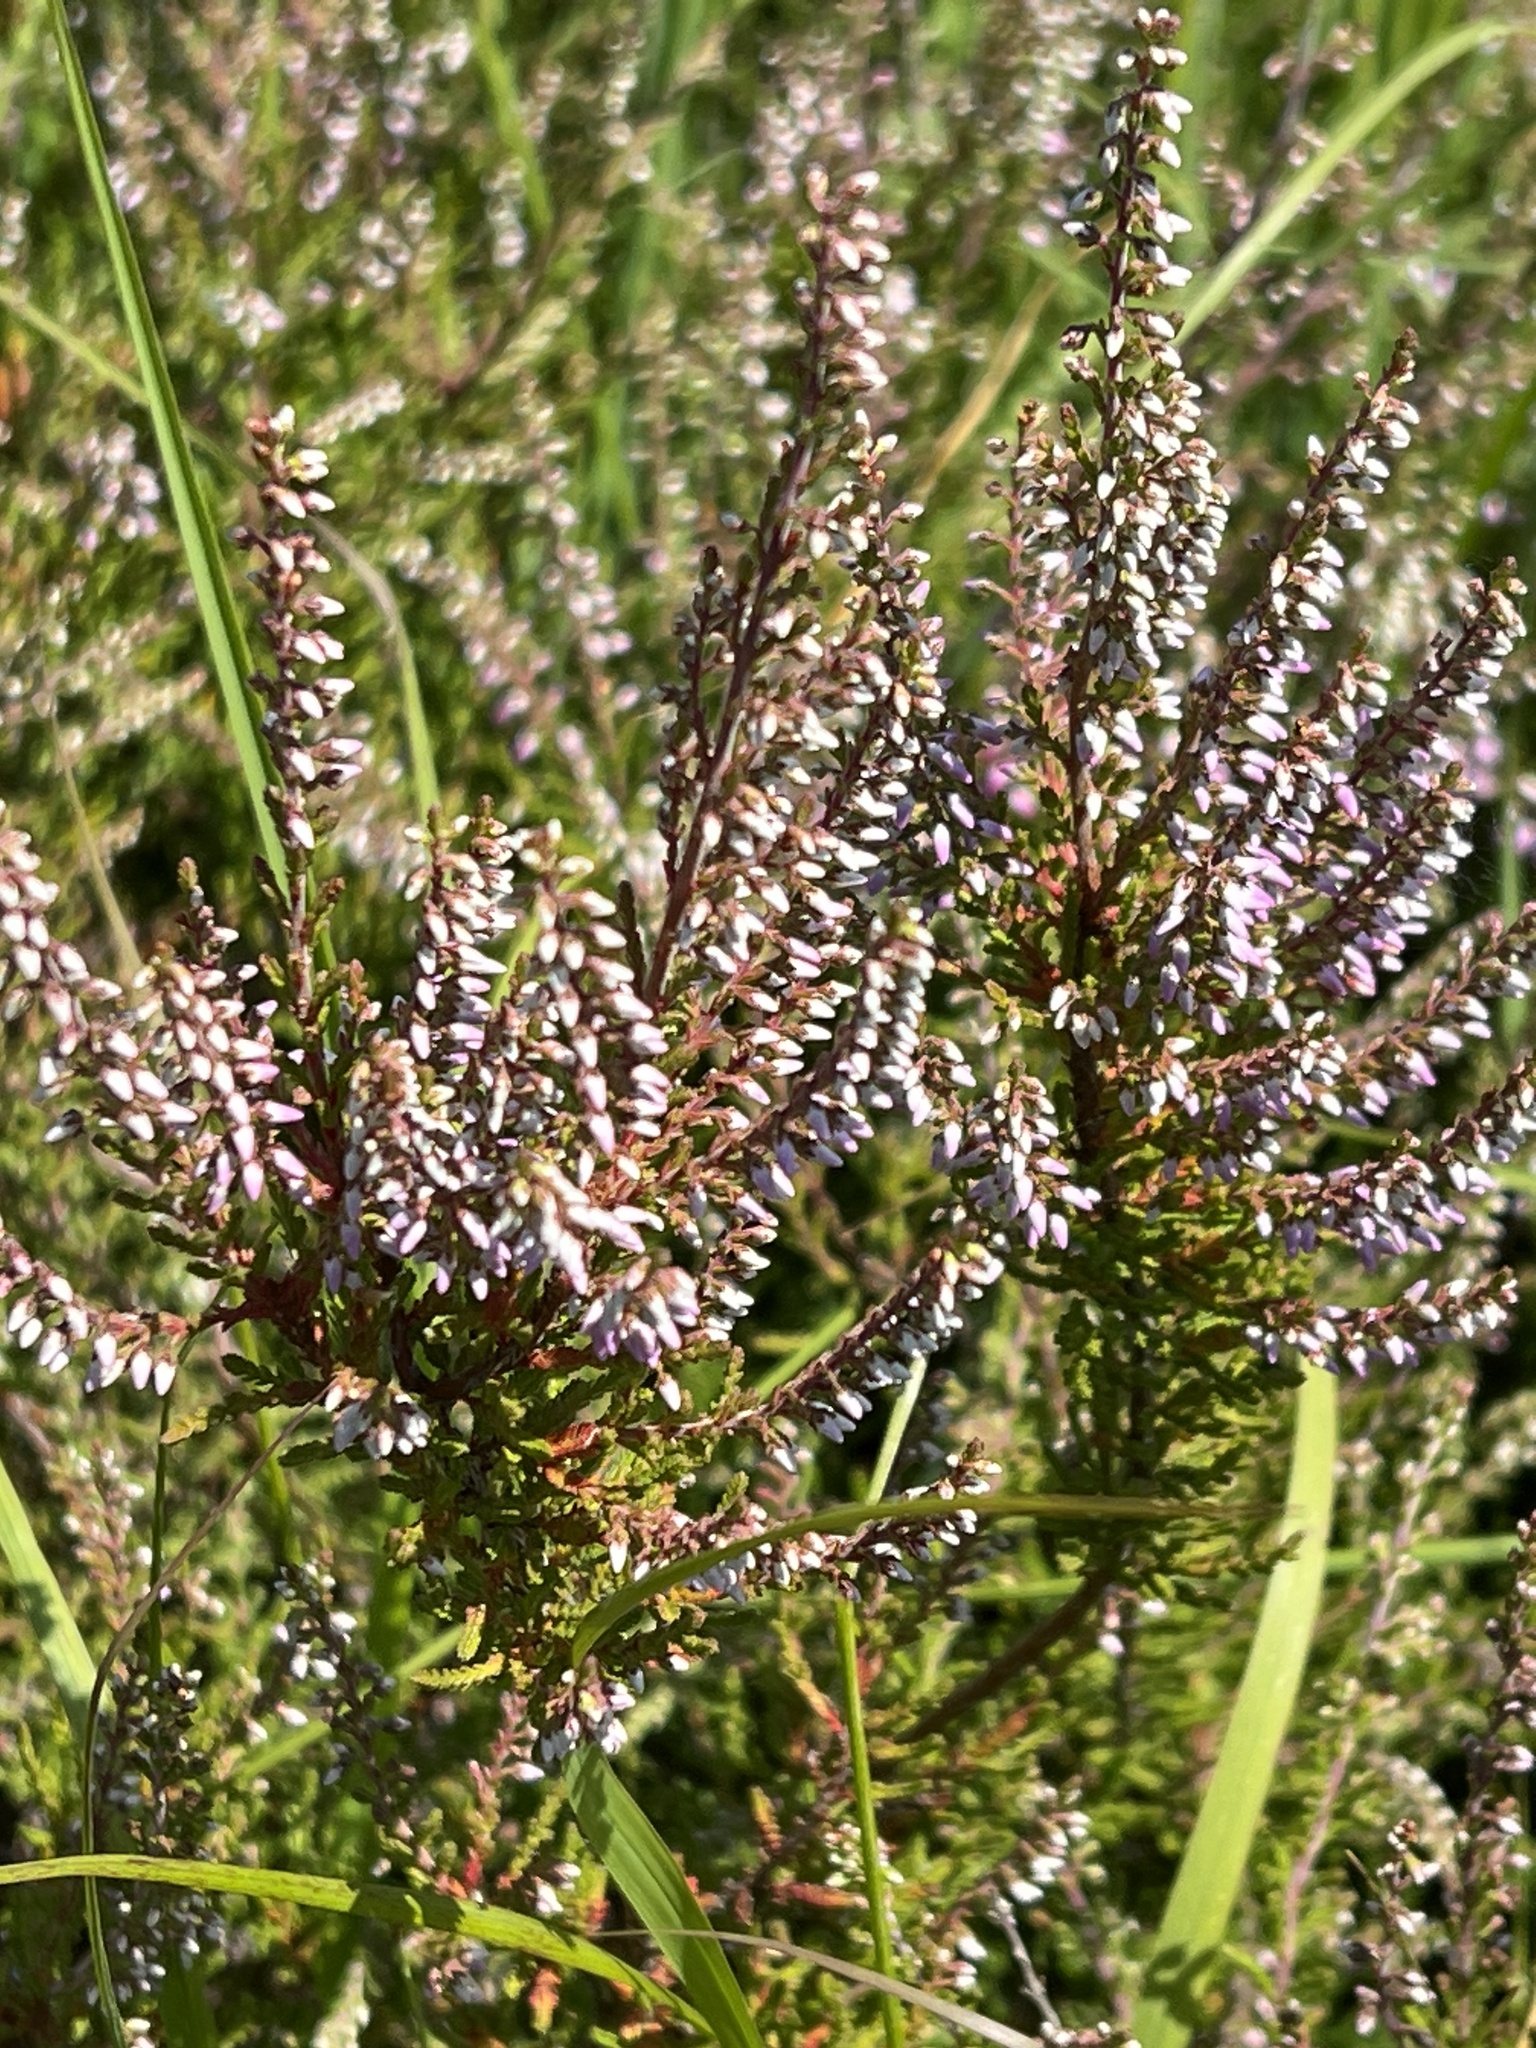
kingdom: Plantae
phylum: Tracheophyta
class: Magnoliopsida
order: Ericales
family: Ericaceae
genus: Calluna
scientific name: Calluna vulgaris
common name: Heather
